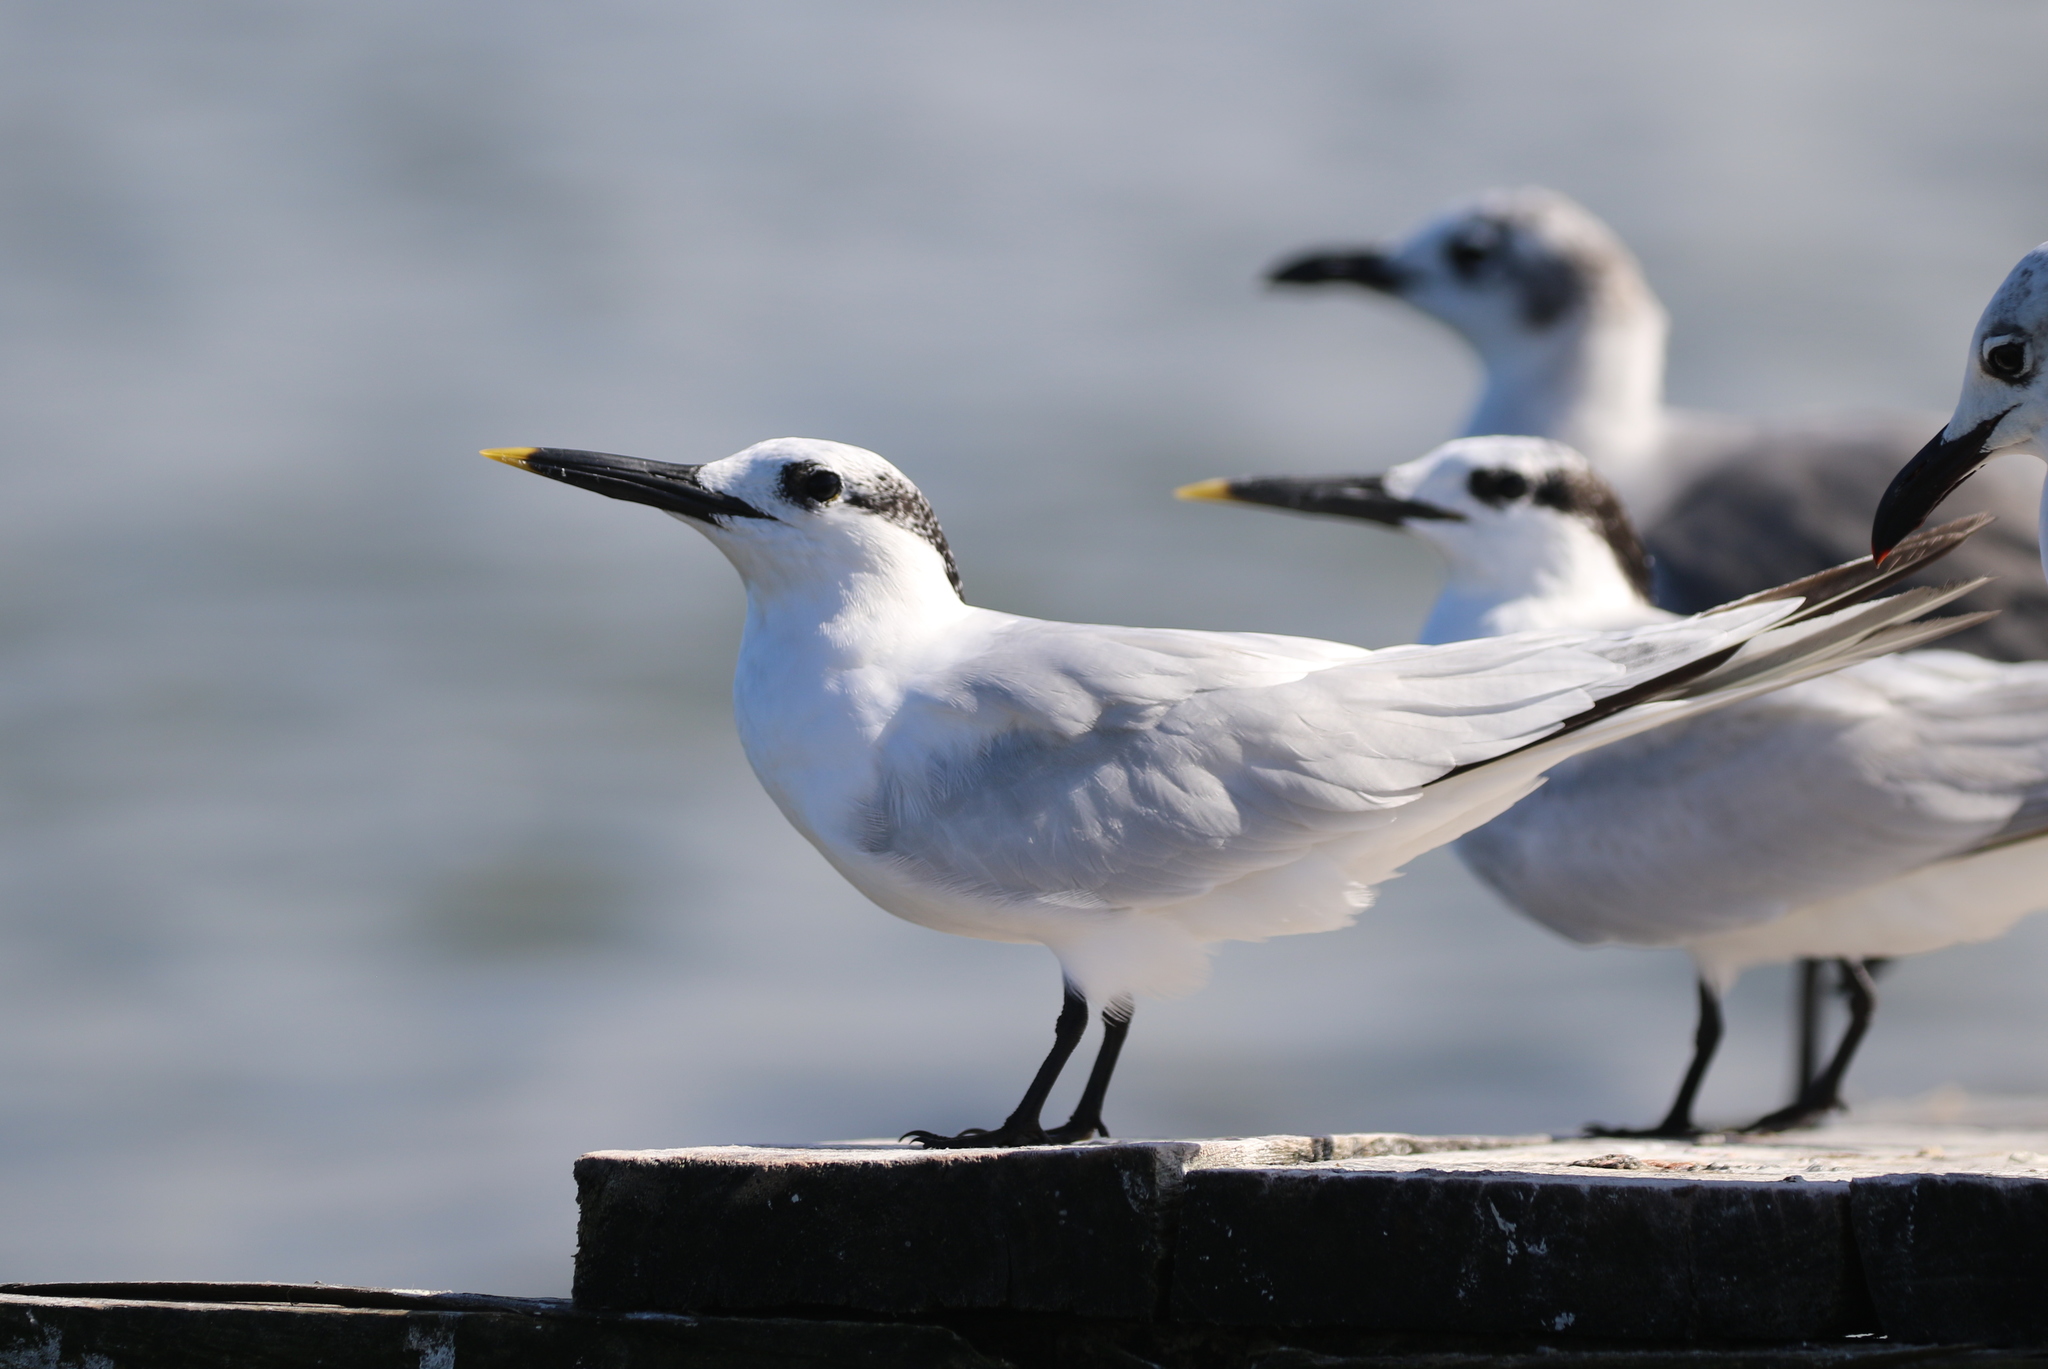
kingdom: Animalia
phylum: Chordata
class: Aves
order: Charadriiformes
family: Laridae
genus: Thalasseus
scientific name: Thalasseus sandvicensis
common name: Sandwich tern
